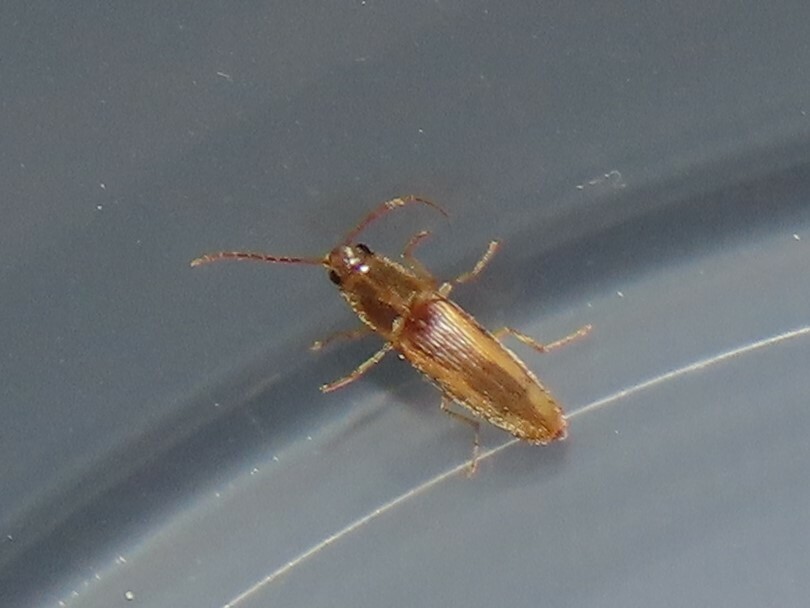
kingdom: Animalia
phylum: Arthropoda
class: Insecta
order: Coleoptera
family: Elateridae
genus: Monocrepidius
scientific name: Monocrepidius
